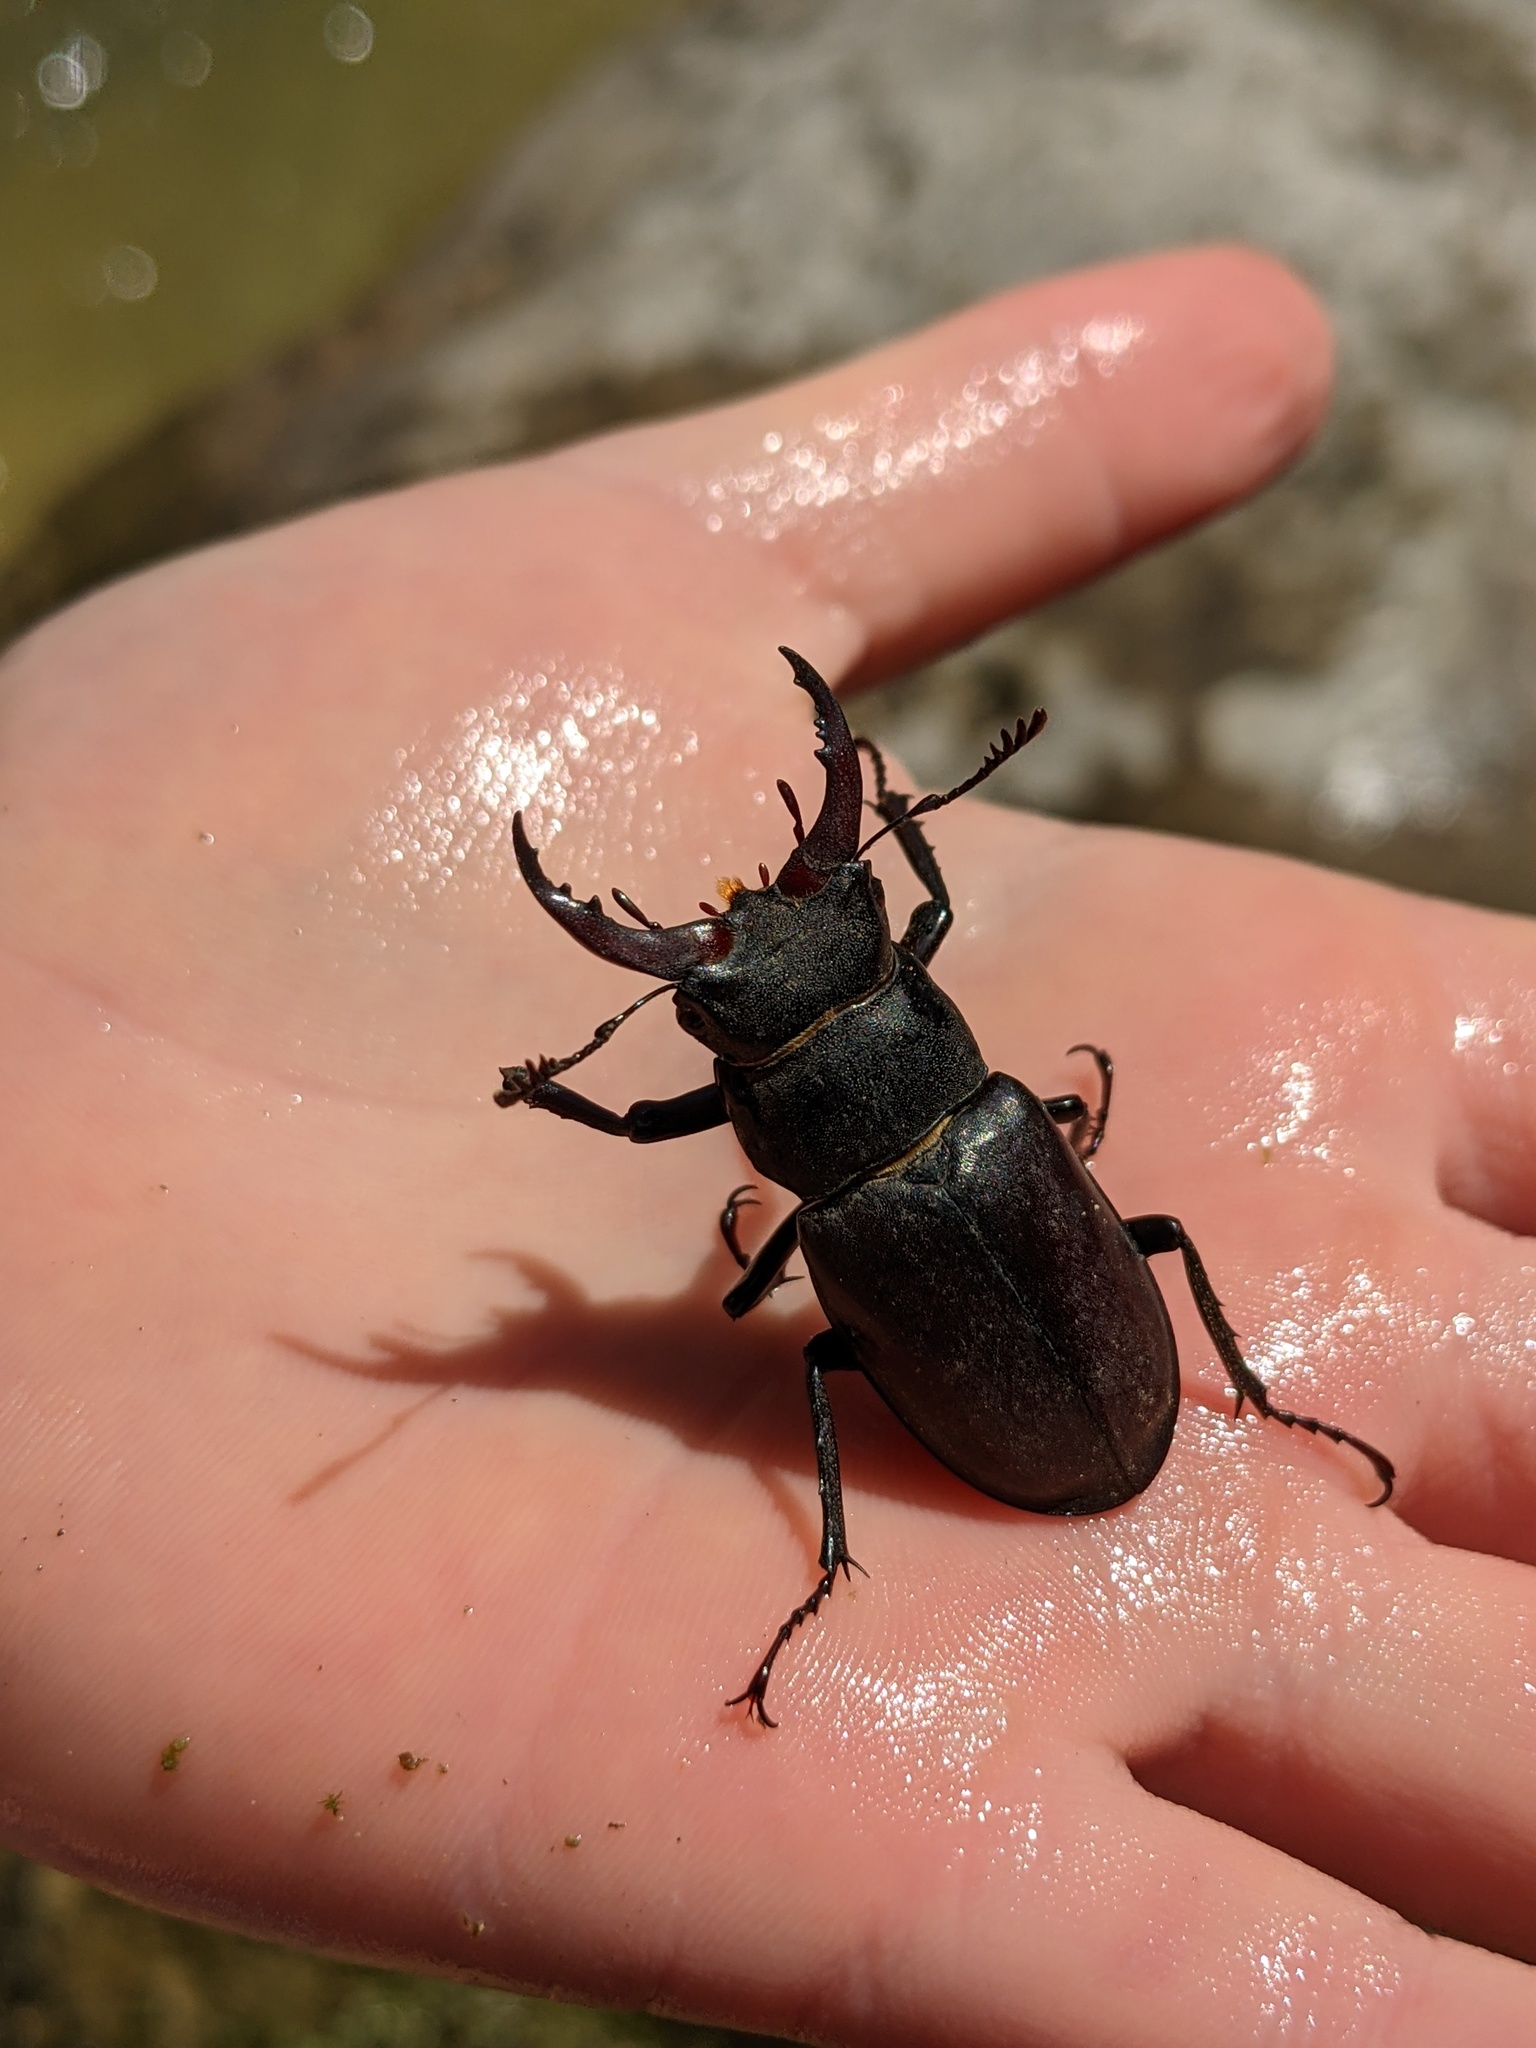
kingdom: Animalia
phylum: Arthropoda
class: Insecta
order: Coleoptera
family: Lucanidae
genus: Lucanus
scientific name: Lucanus cervus
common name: Stag beetle
